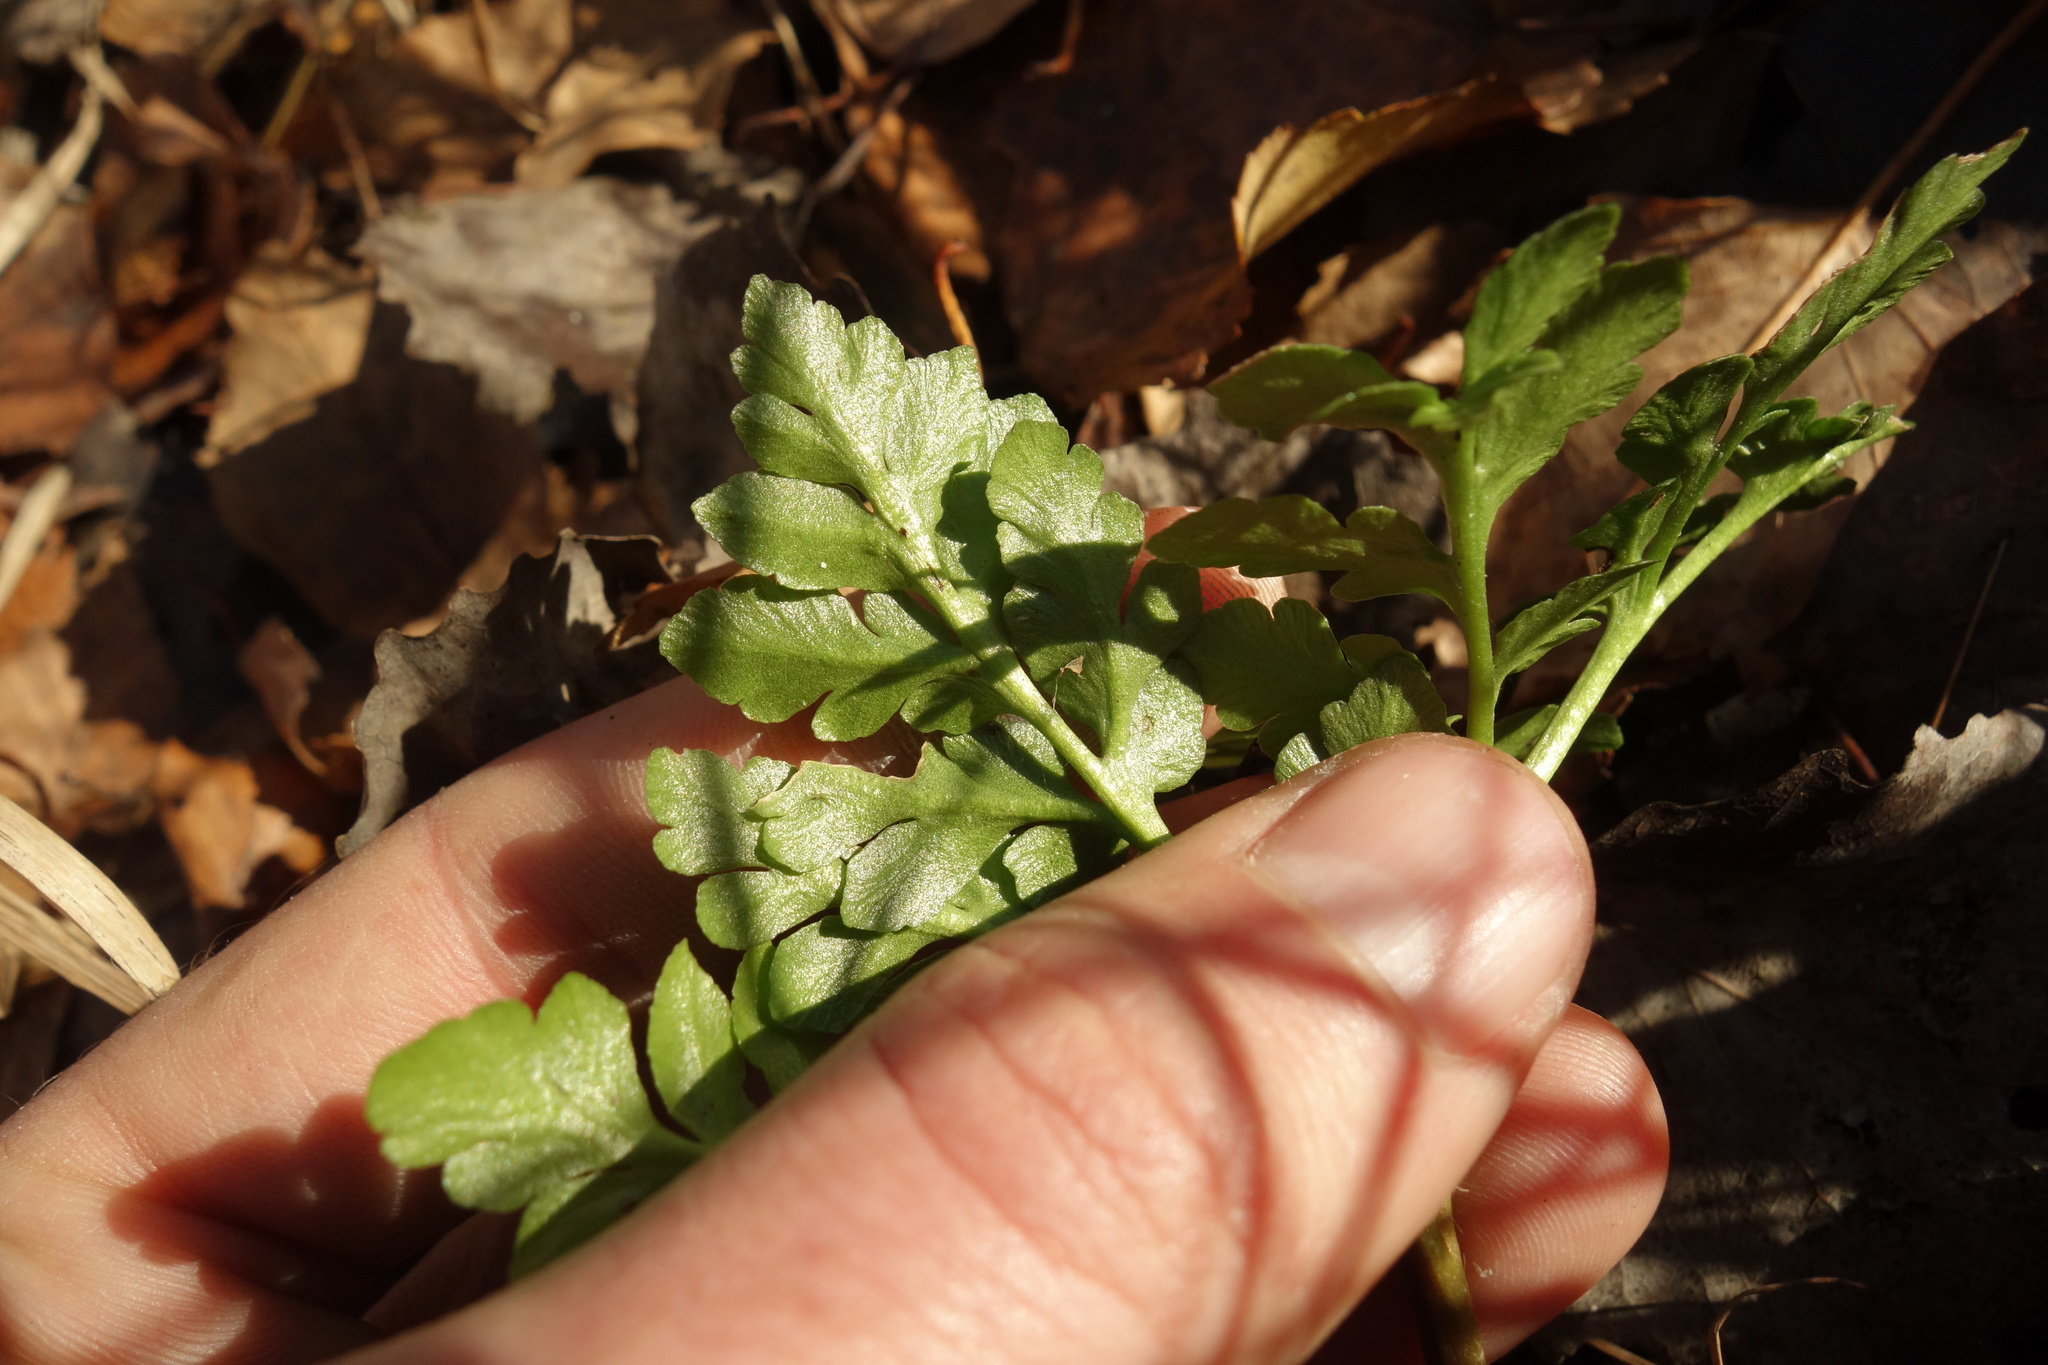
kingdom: Plantae
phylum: Tracheophyta
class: Polypodiopsida
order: Ophioglossales
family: Ophioglossaceae
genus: Sceptridium
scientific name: Sceptridium multifidum
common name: Leathery grape fern
